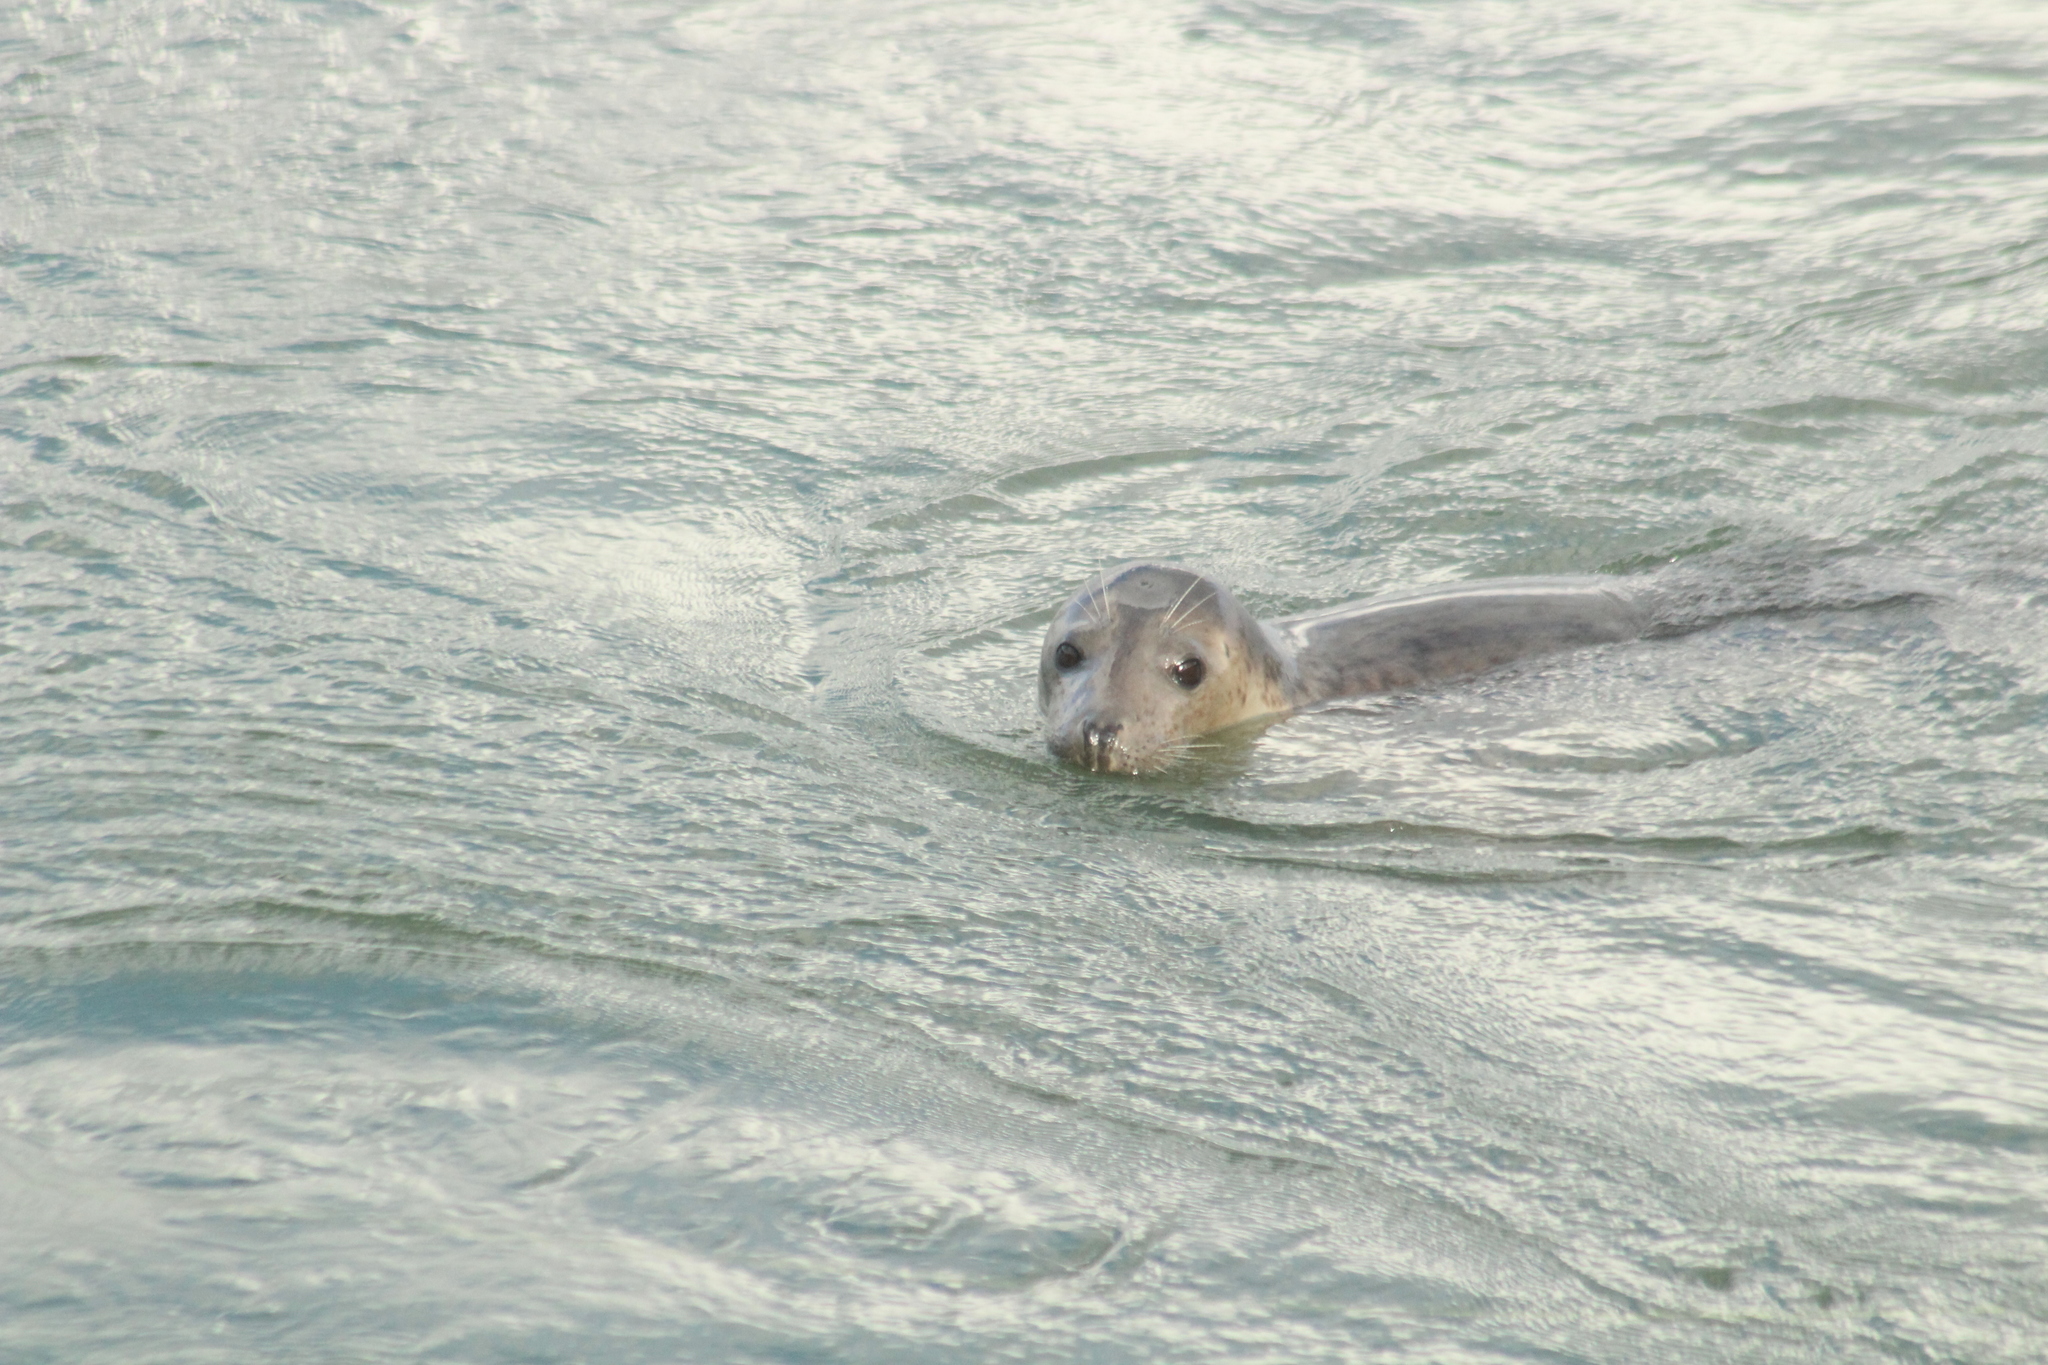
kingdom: Animalia
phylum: Chordata
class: Mammalia
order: Carnivora
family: Phocidae
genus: Halichoerus
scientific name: Halichoerus grypus
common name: Grey seal
